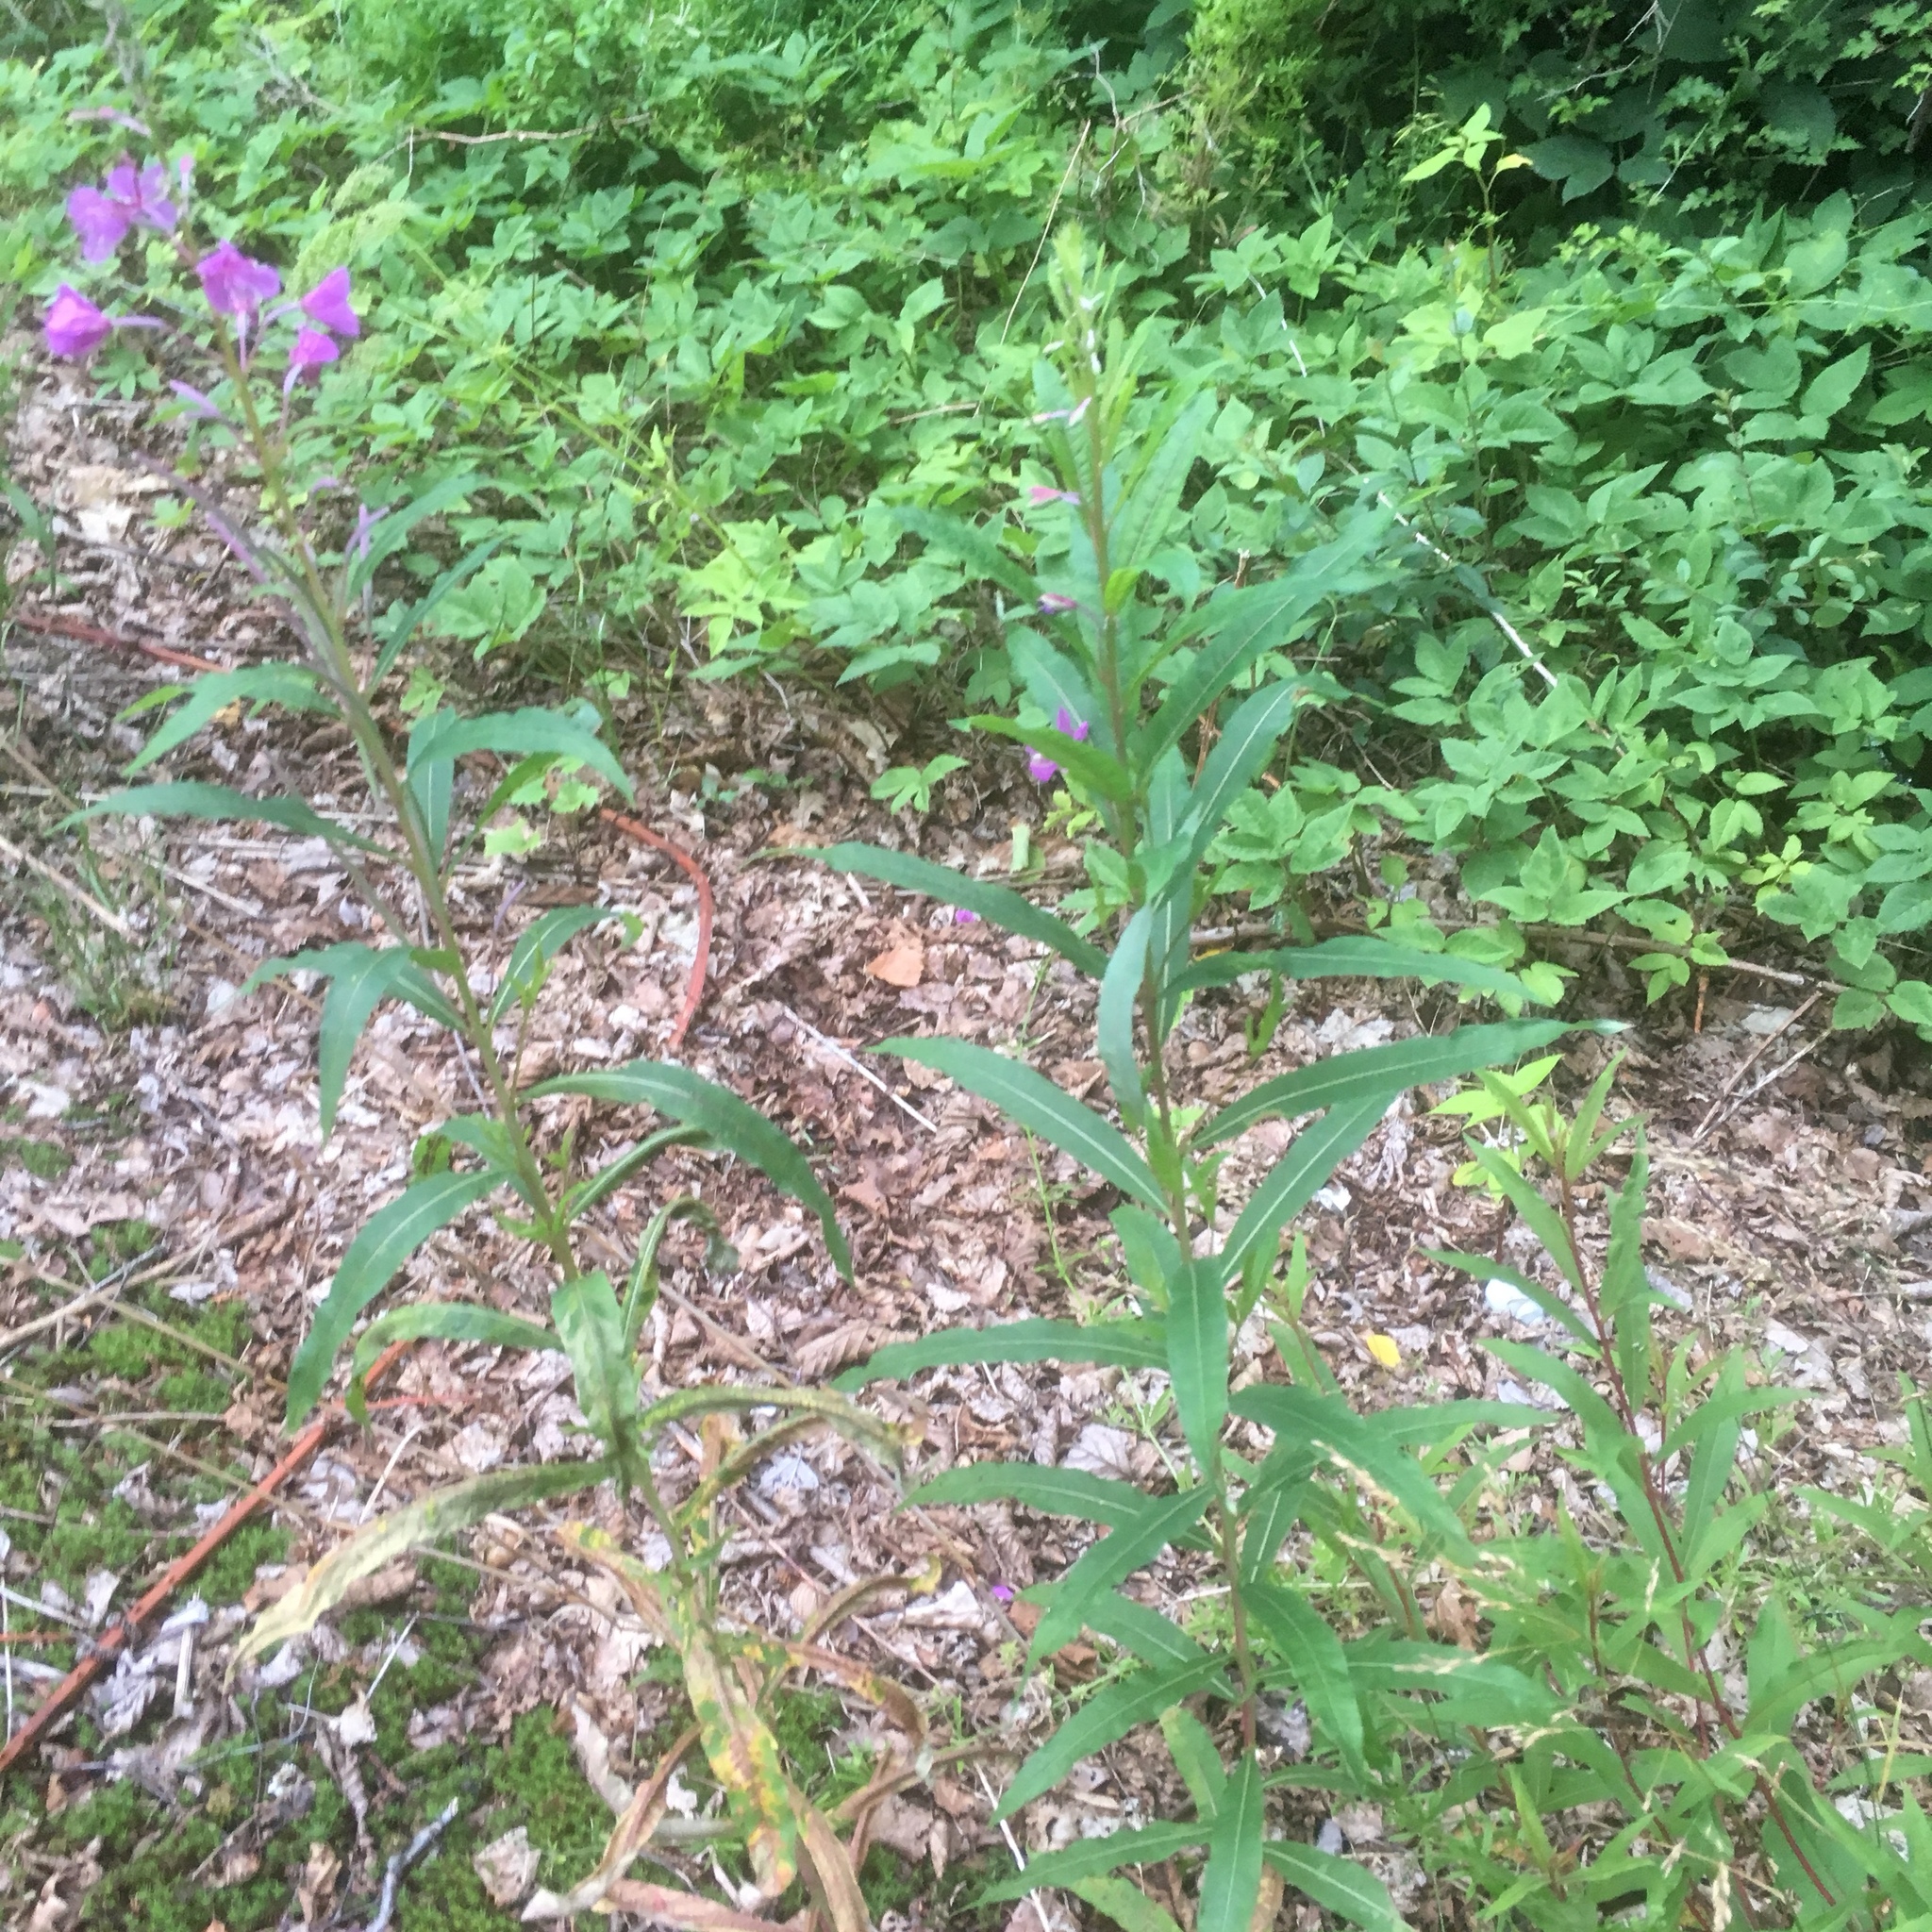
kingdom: Plantae
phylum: Tracheophyta
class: Magnoliopsida
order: Myrtales
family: Onagraceae
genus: Chamaenerion
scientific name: Chamaenerion angustifolium
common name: Fireweed
